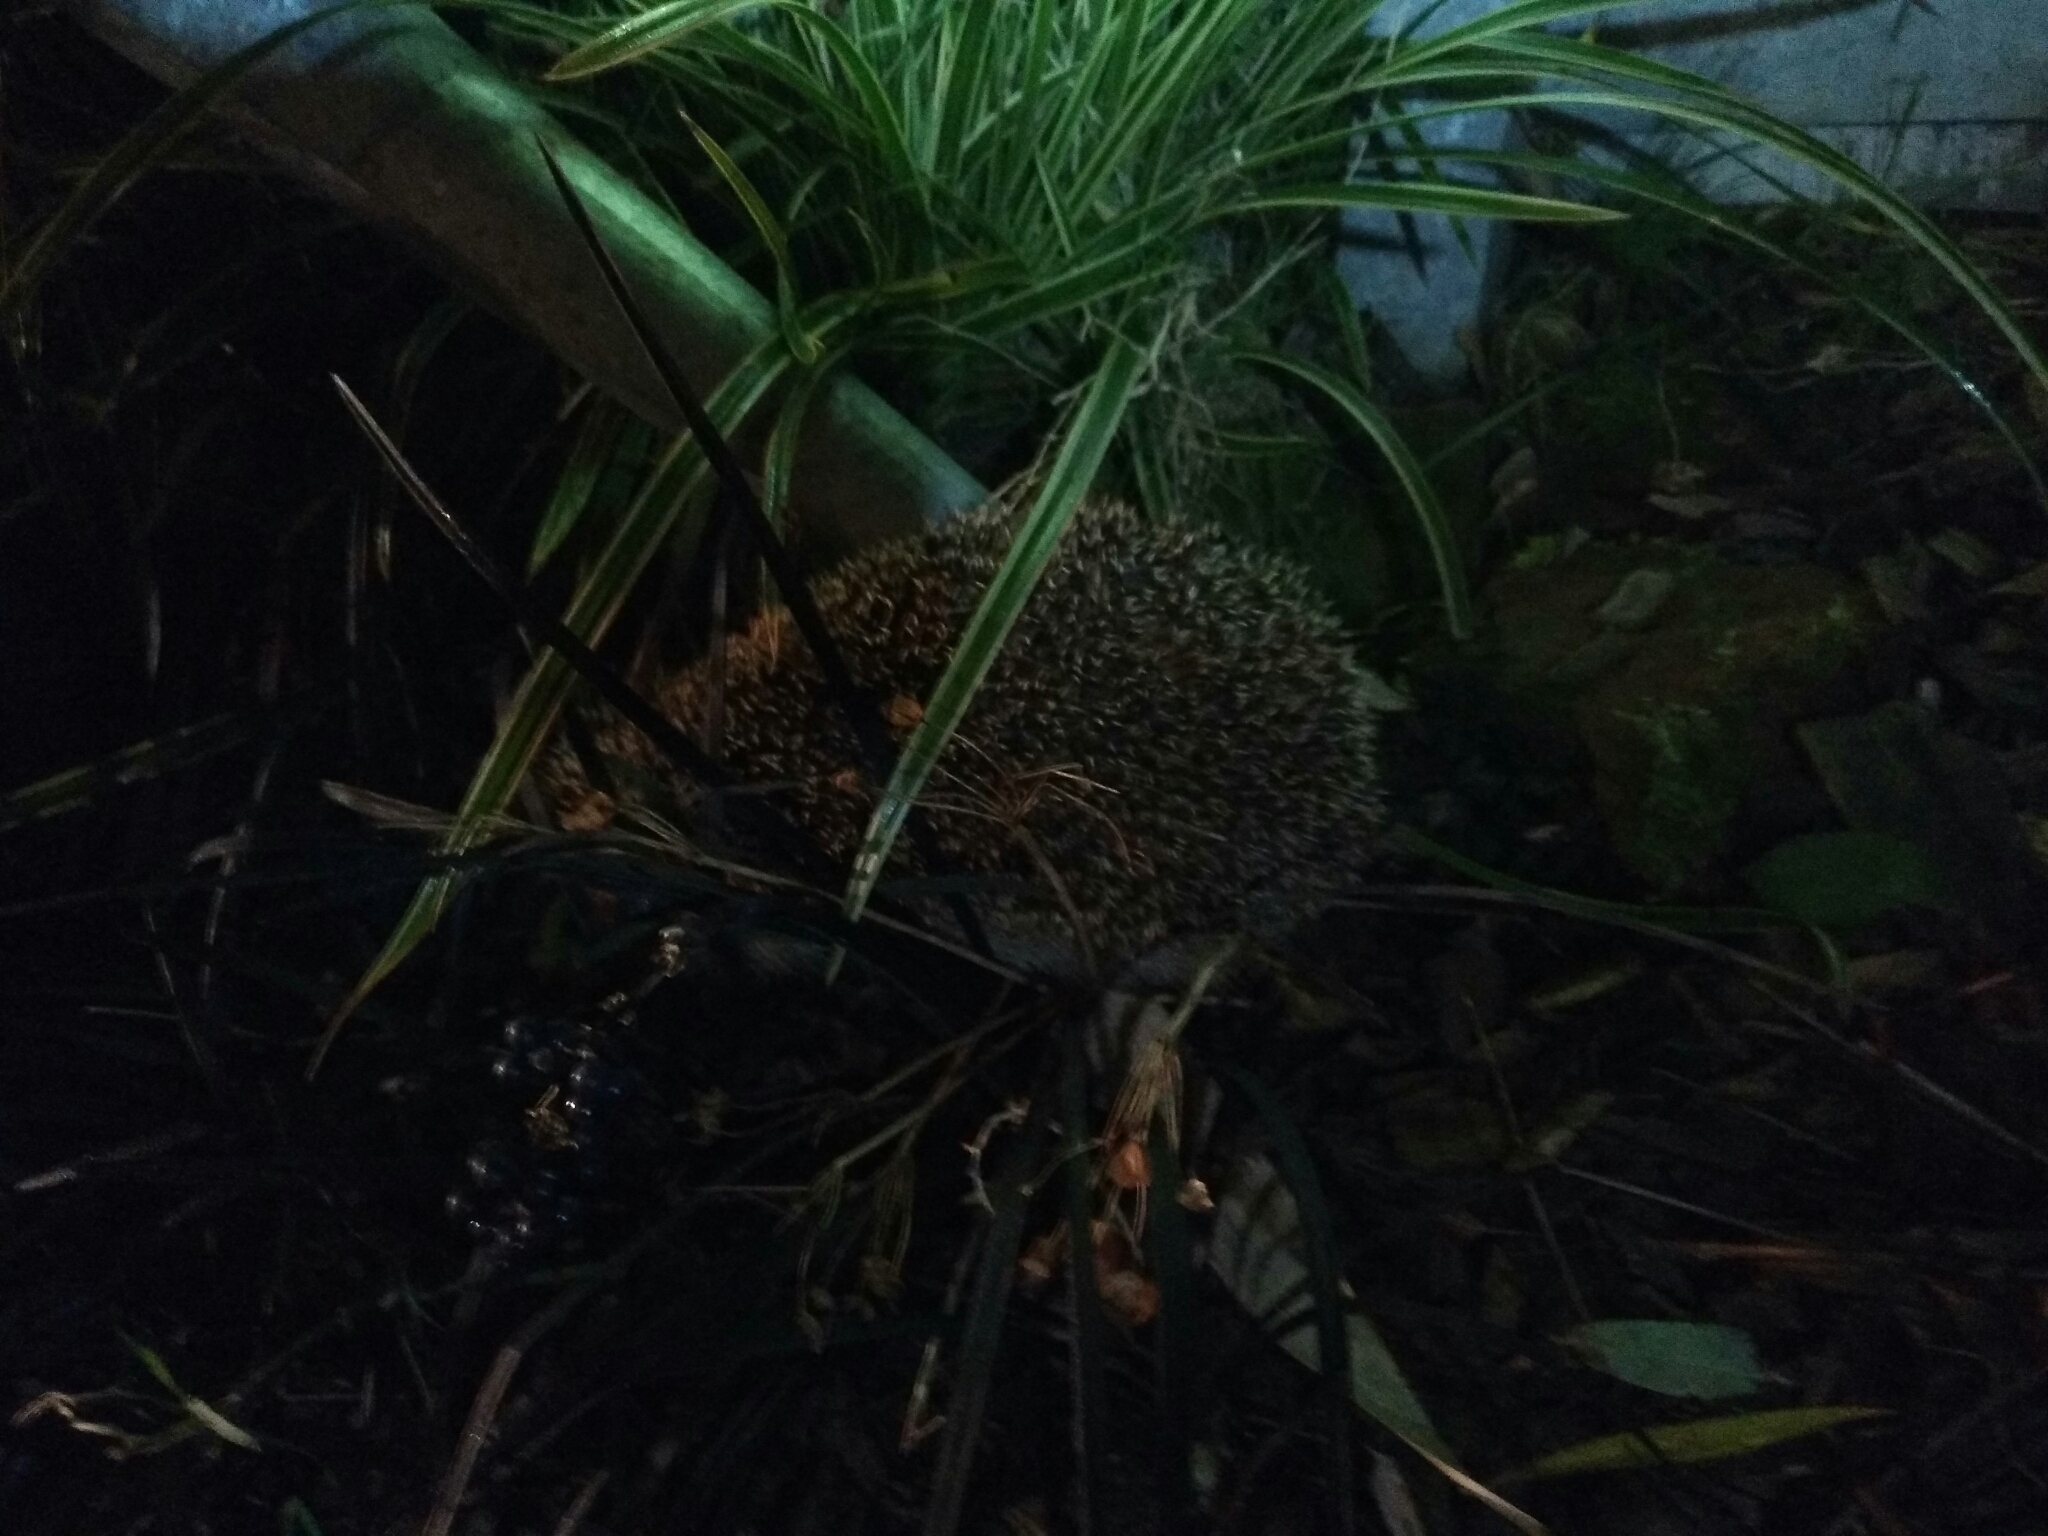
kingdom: Animalia
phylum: Chordata
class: Mammalia
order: Erinaceomorpha
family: Erinaceidae
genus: Erinaceus
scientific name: Erinaceus europaeus
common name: West european hedgehog
